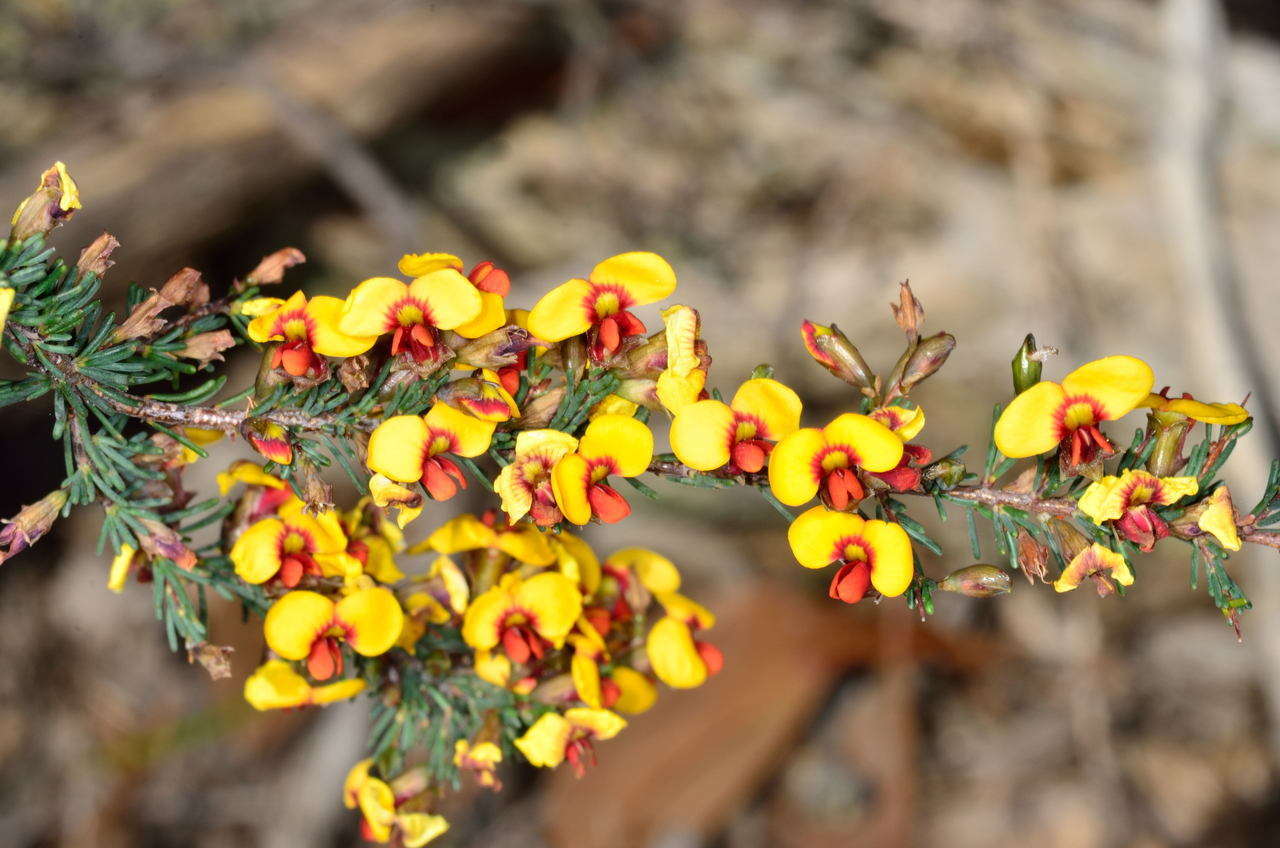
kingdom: Plantae
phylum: Tracheophyta
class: Magnoliopsida
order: Fabales
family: Fabaceae
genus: Dillwynia
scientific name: Dillwynia ramosissima
